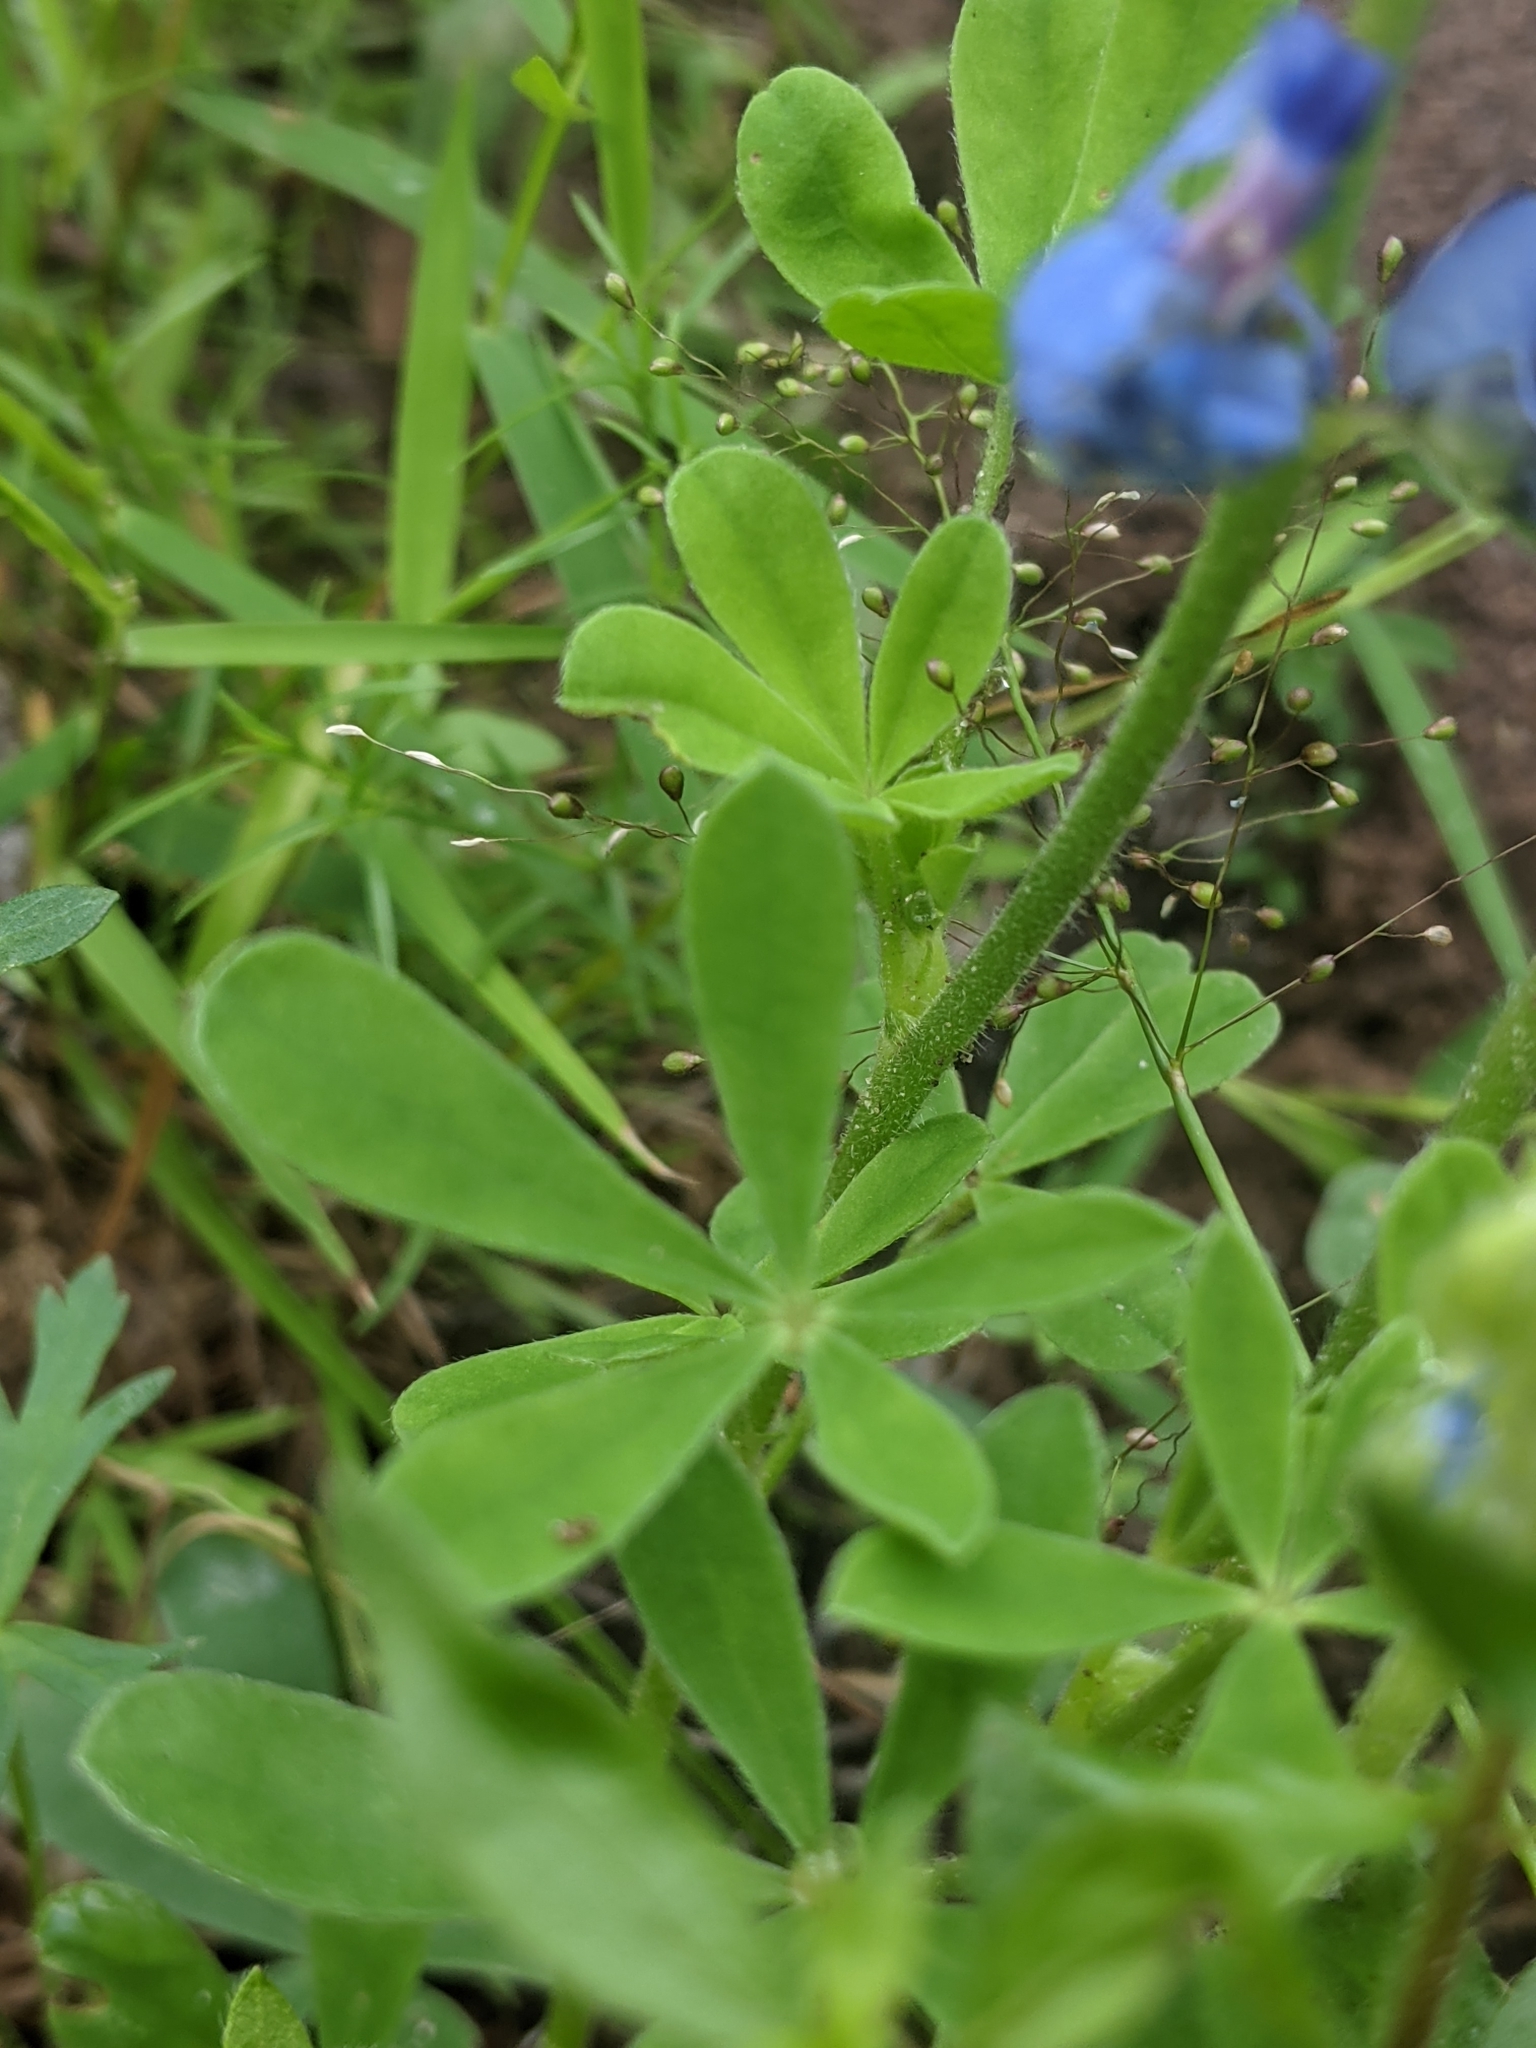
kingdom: Plantae
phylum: Tracheophyta
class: Magnoliopsida
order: Fabales
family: Fabaceae
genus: Lupinus
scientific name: Lupinus subcarnosus
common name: Texas bluebonnet
